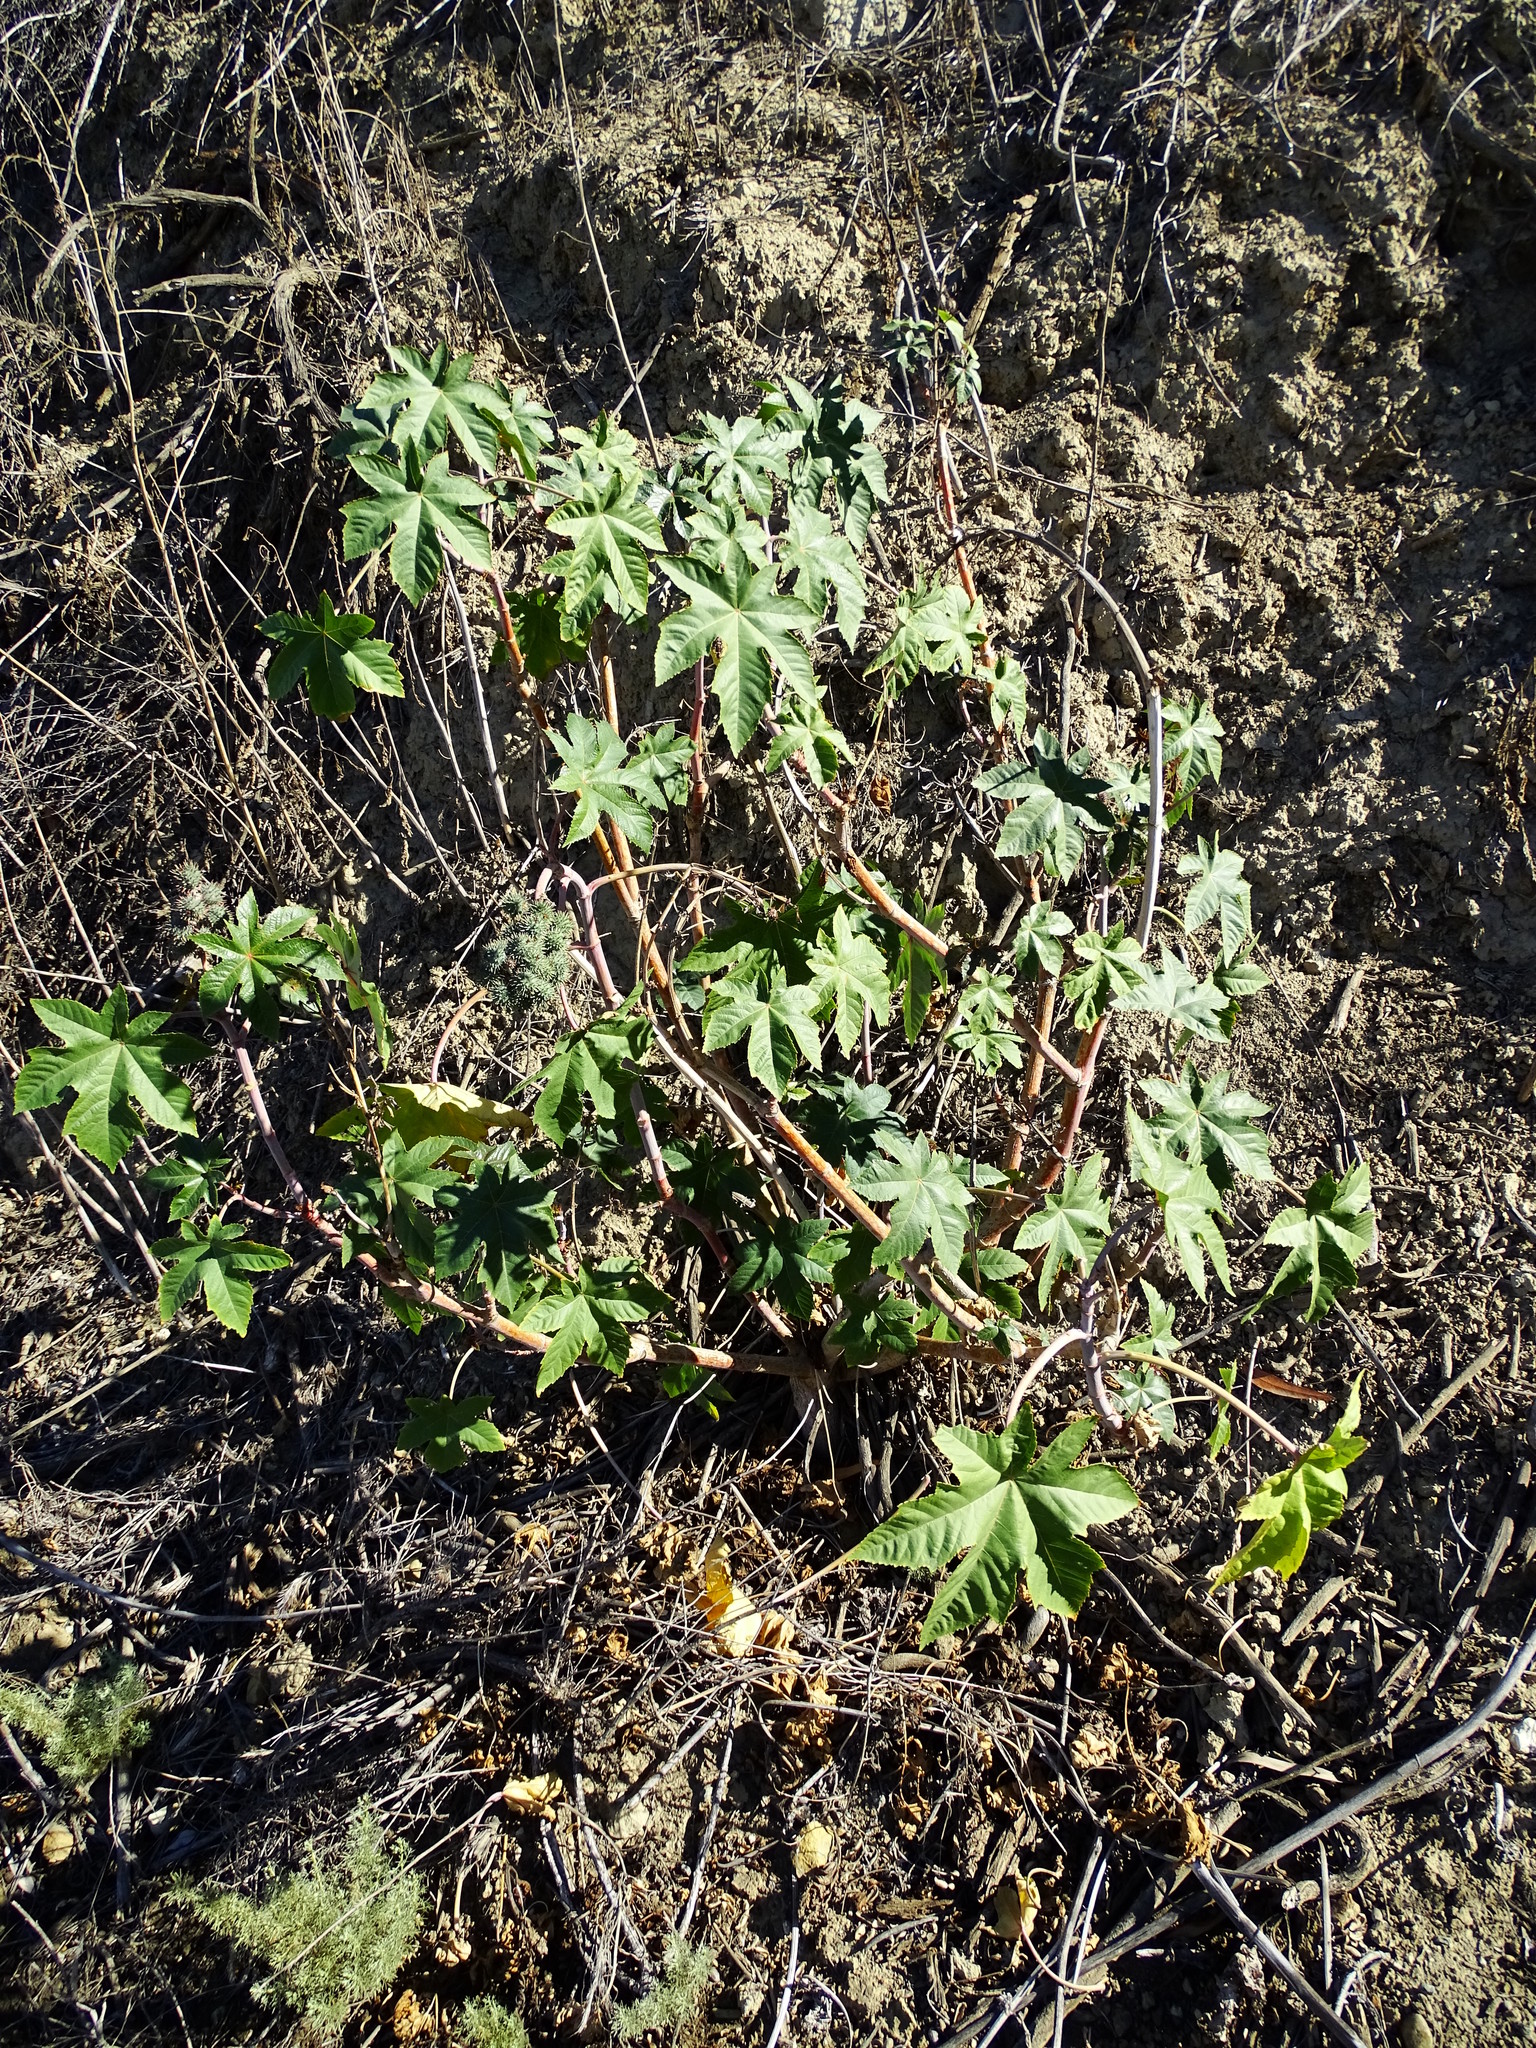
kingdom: Plantae
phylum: Tracheophyta
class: Magnoliopsida
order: Malpighiales
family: Euphorbiaceae
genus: Ricinus
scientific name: Ricinus communis
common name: Castor-oil-plant
